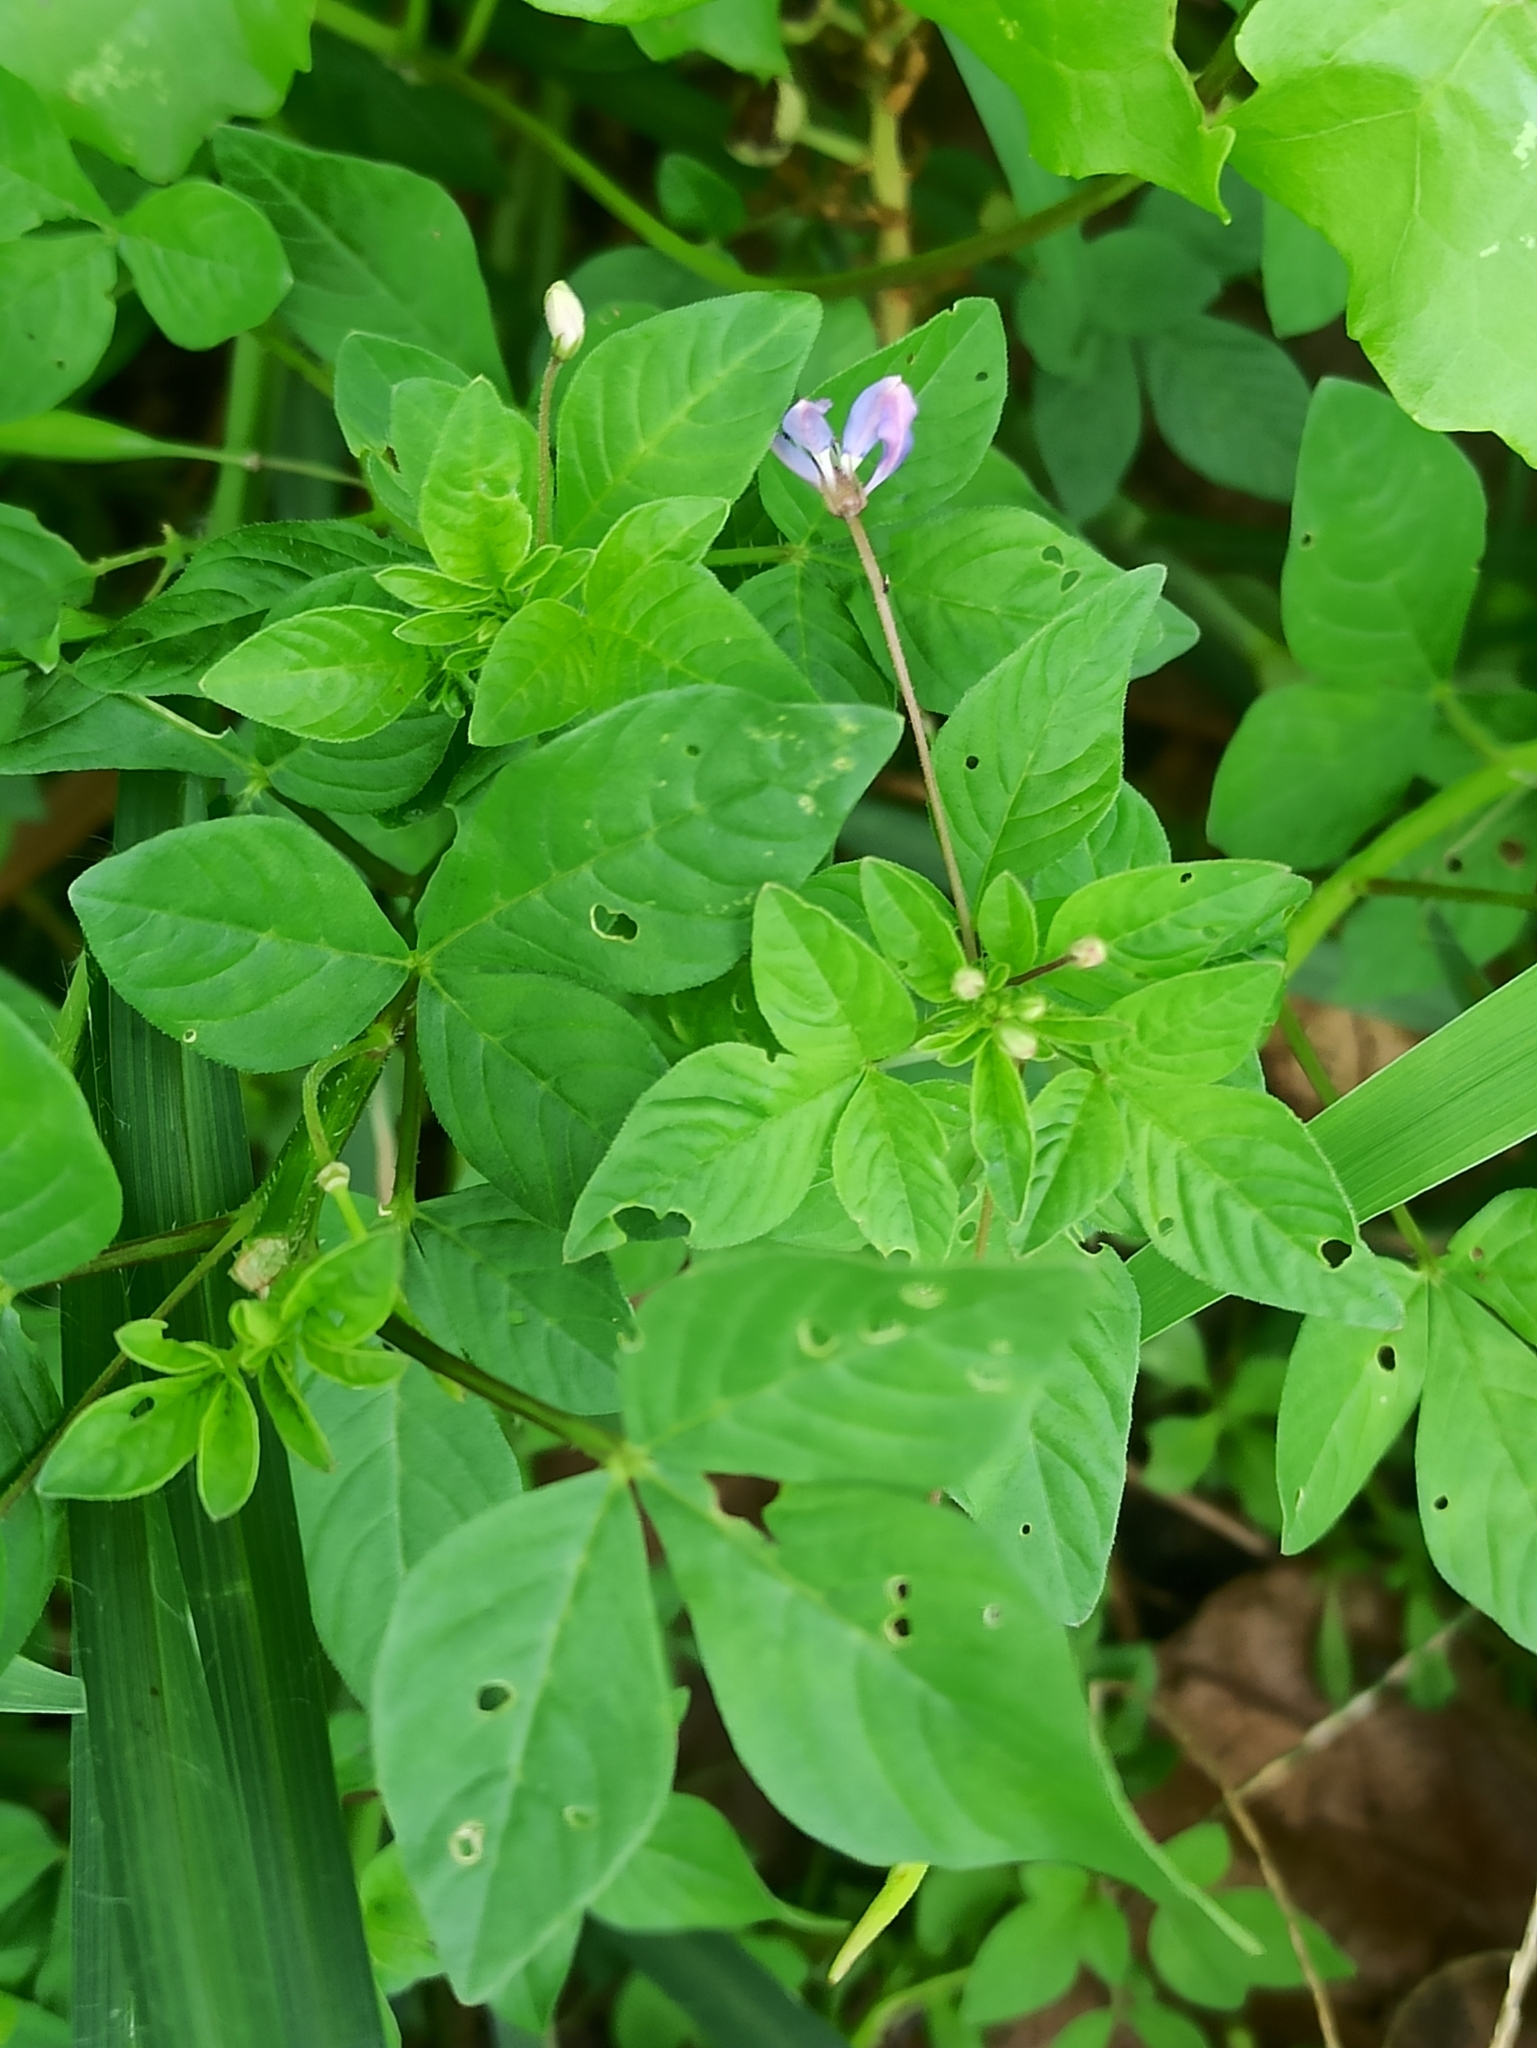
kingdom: Plantae
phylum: Tracheophyta
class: Magnoliopsida
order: Brassicales
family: Cleomaceae
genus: Sieruela
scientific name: Sieruela rutidosperma
